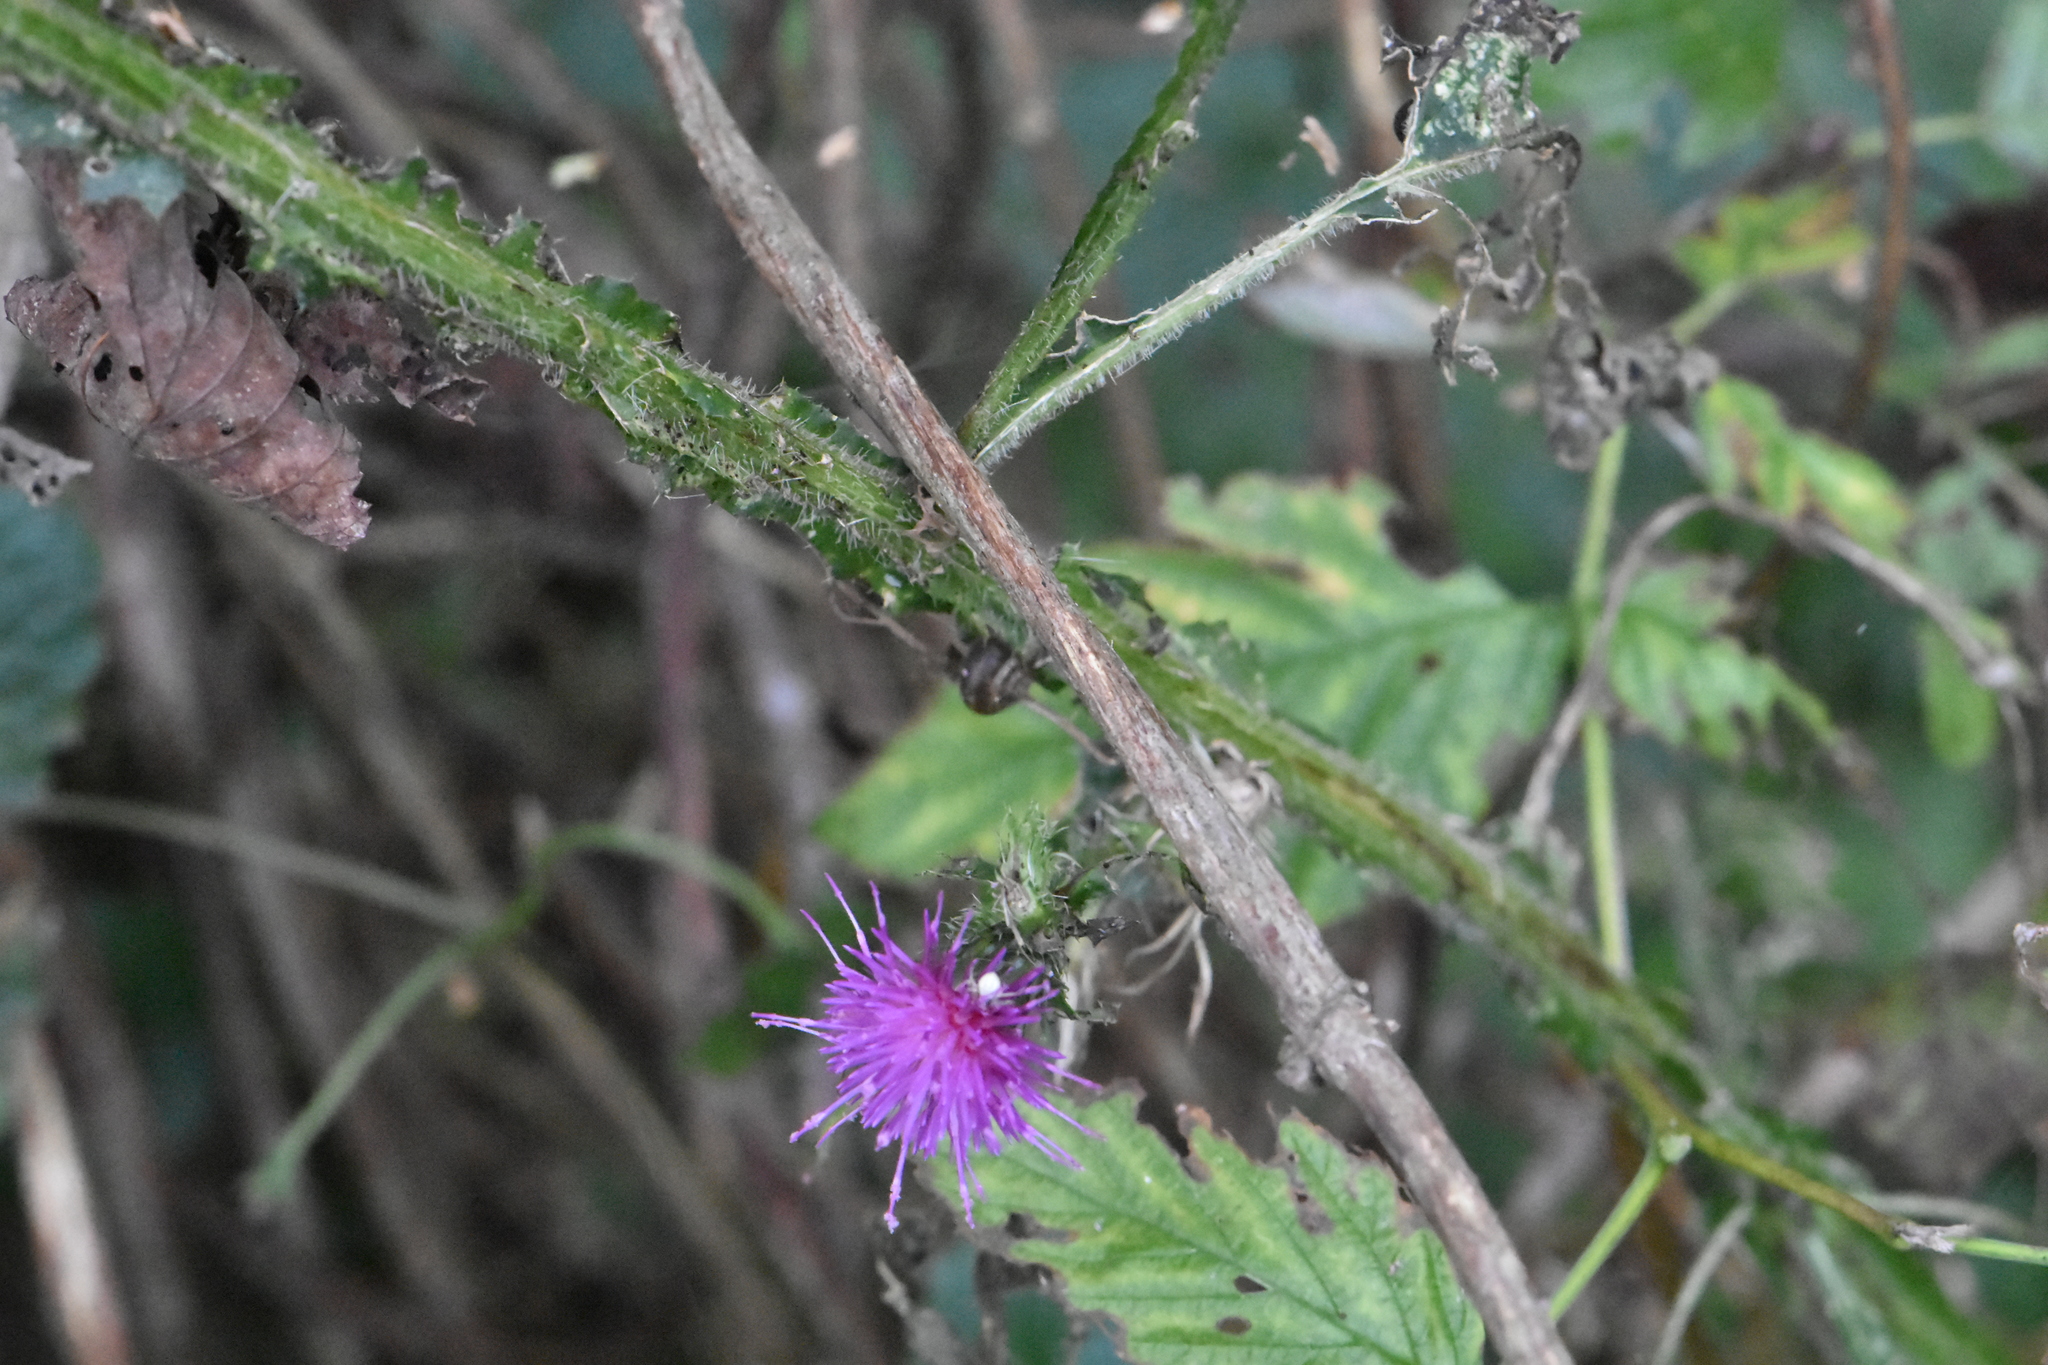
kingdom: Plantae
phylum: Tracheophyta
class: Magnoliopsida
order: Asterales
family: Asteraceae
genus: Carduus
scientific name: Carduus crispus
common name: Welted thistle
